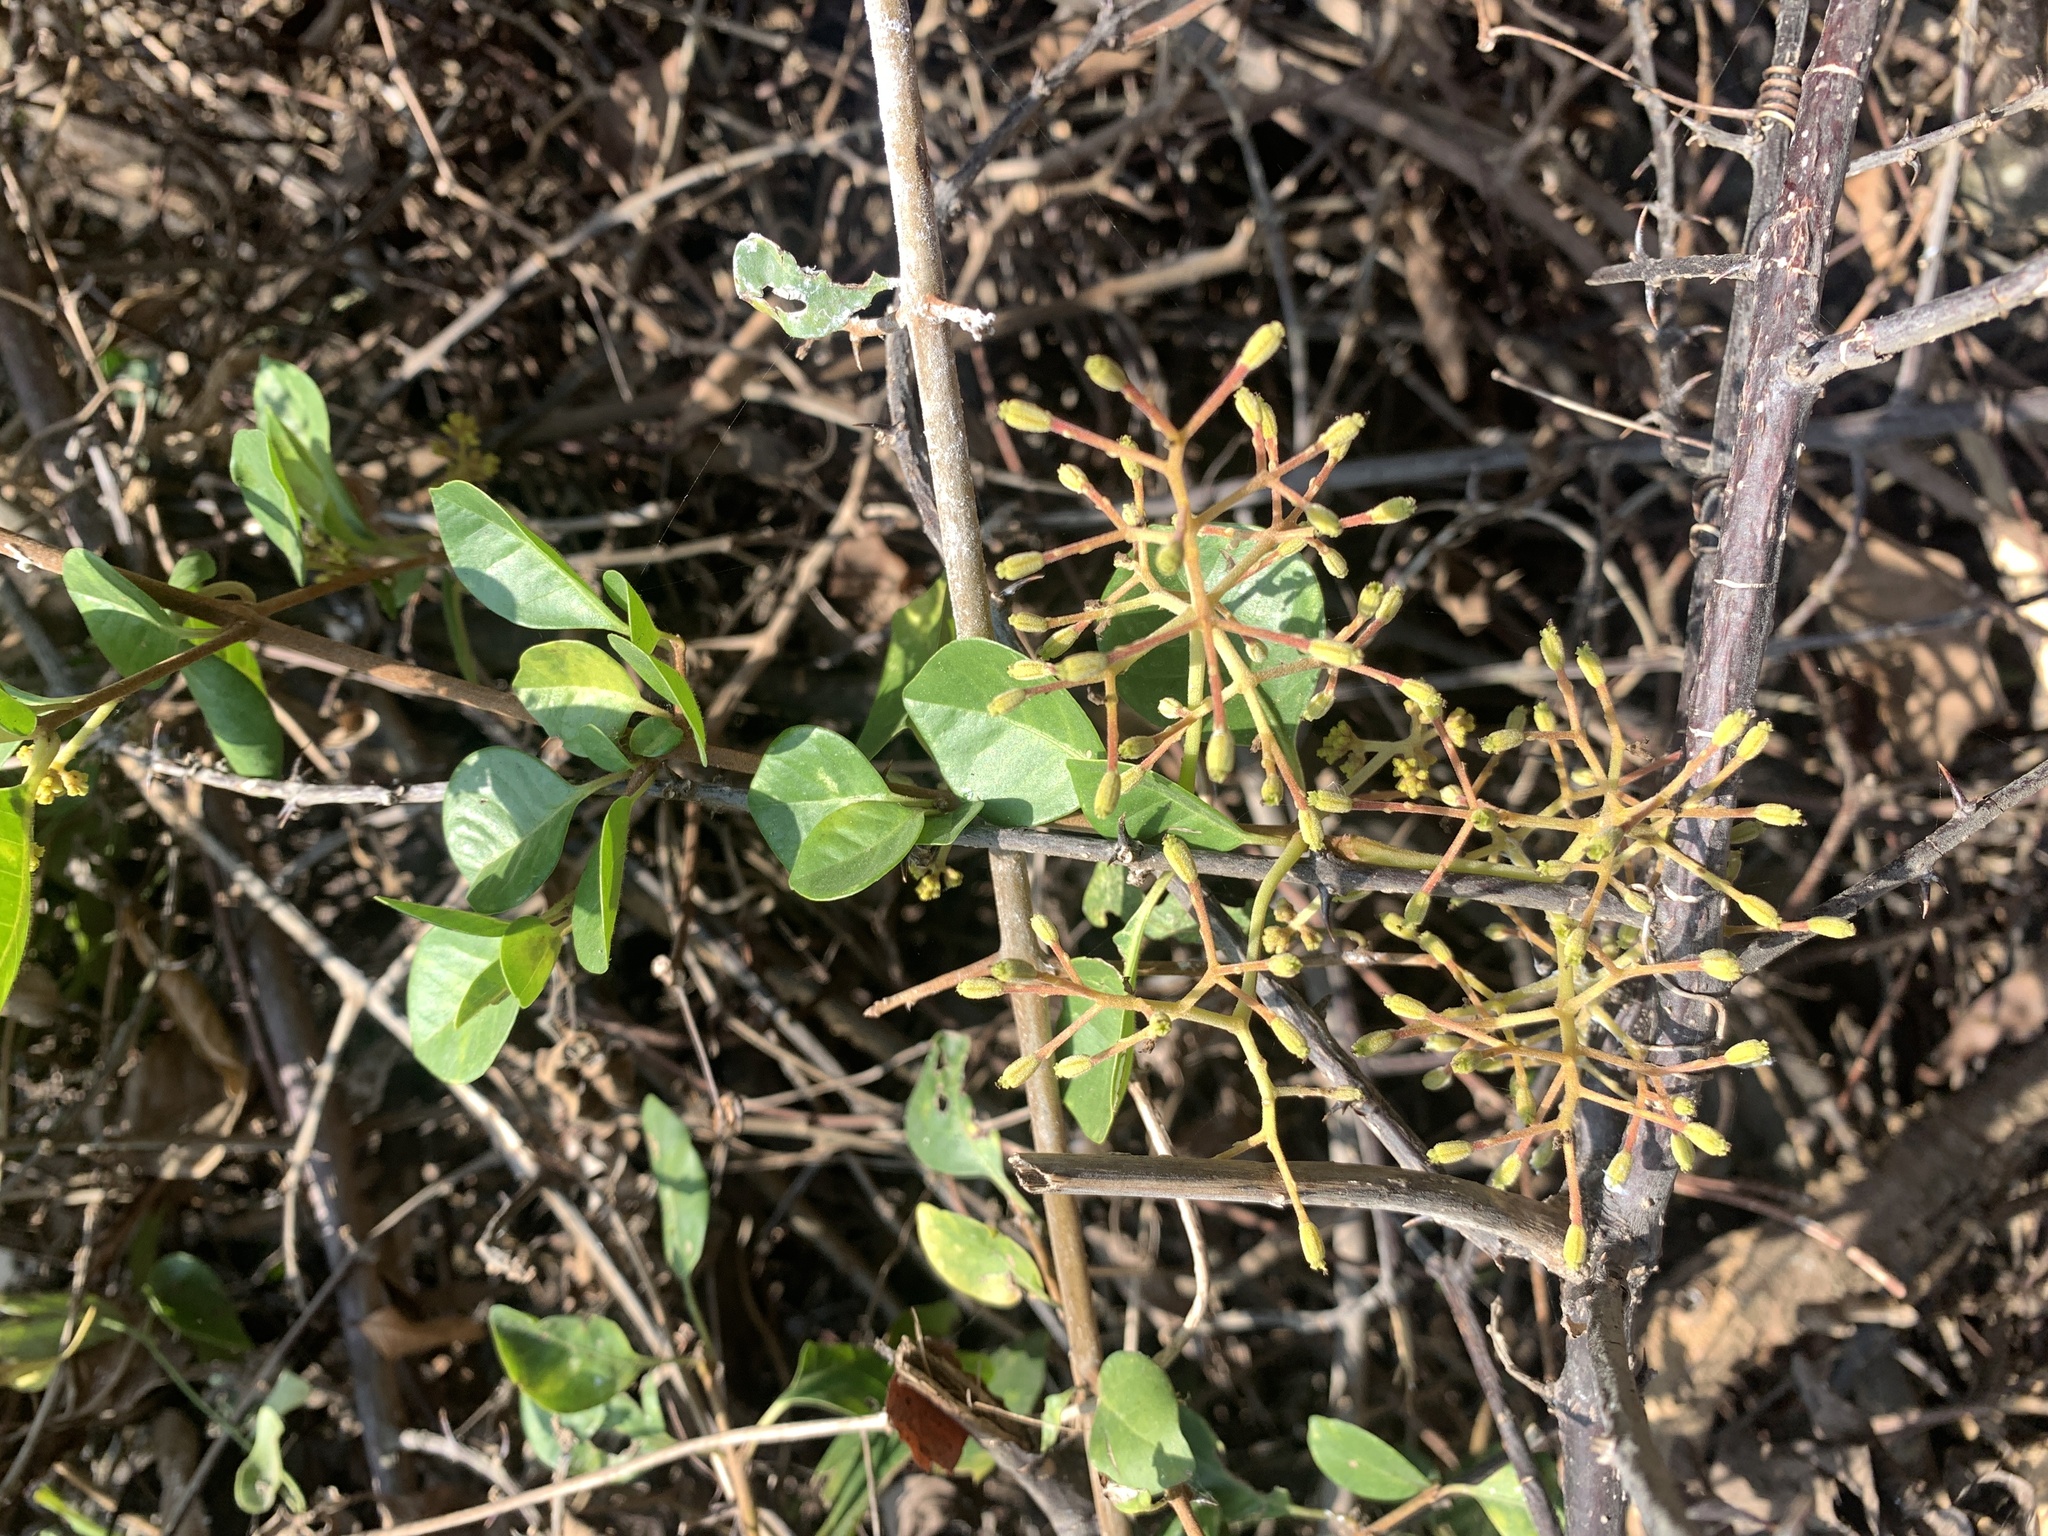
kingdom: Plantae
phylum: Tracheophyta
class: Magnoliopsida
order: Caryophyllales
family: Nyctaginaceae
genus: Pisonia
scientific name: Pisonia aculeata
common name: Cockspur vine
